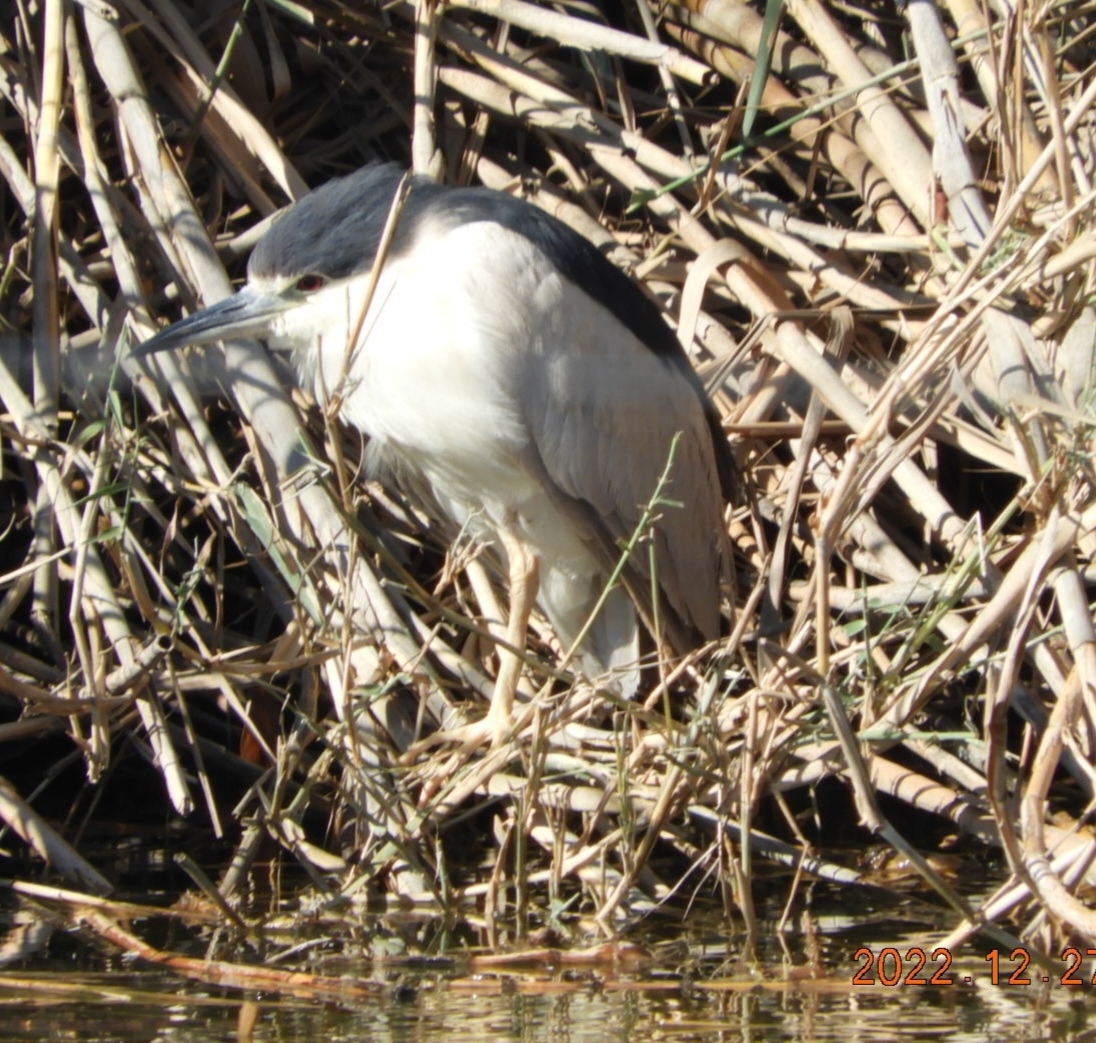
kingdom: Animalia
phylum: Chordata
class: Aves
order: Pelecaniformes
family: Ardeidae
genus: Nycticorax
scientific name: Nycticorax nycticorax
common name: Black-crowned night heron
